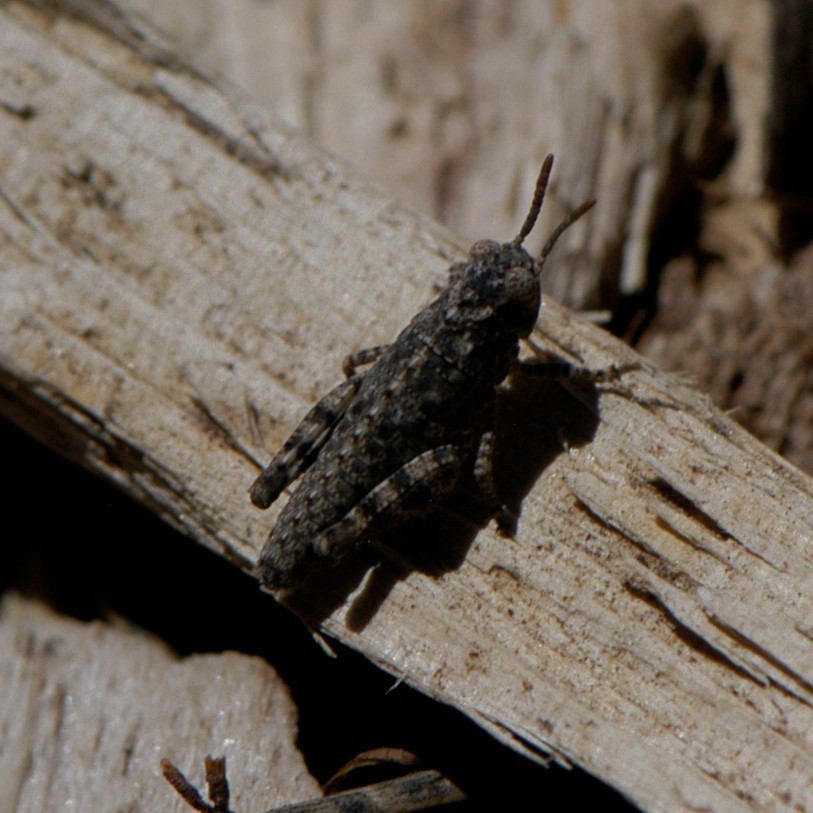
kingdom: Animalia
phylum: Arthropoda
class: Insecta
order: Orthoptera
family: Acrididae
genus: Trimerotropis
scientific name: Trimerotropis pallidipennis
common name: Pallid-winged grasshopper
